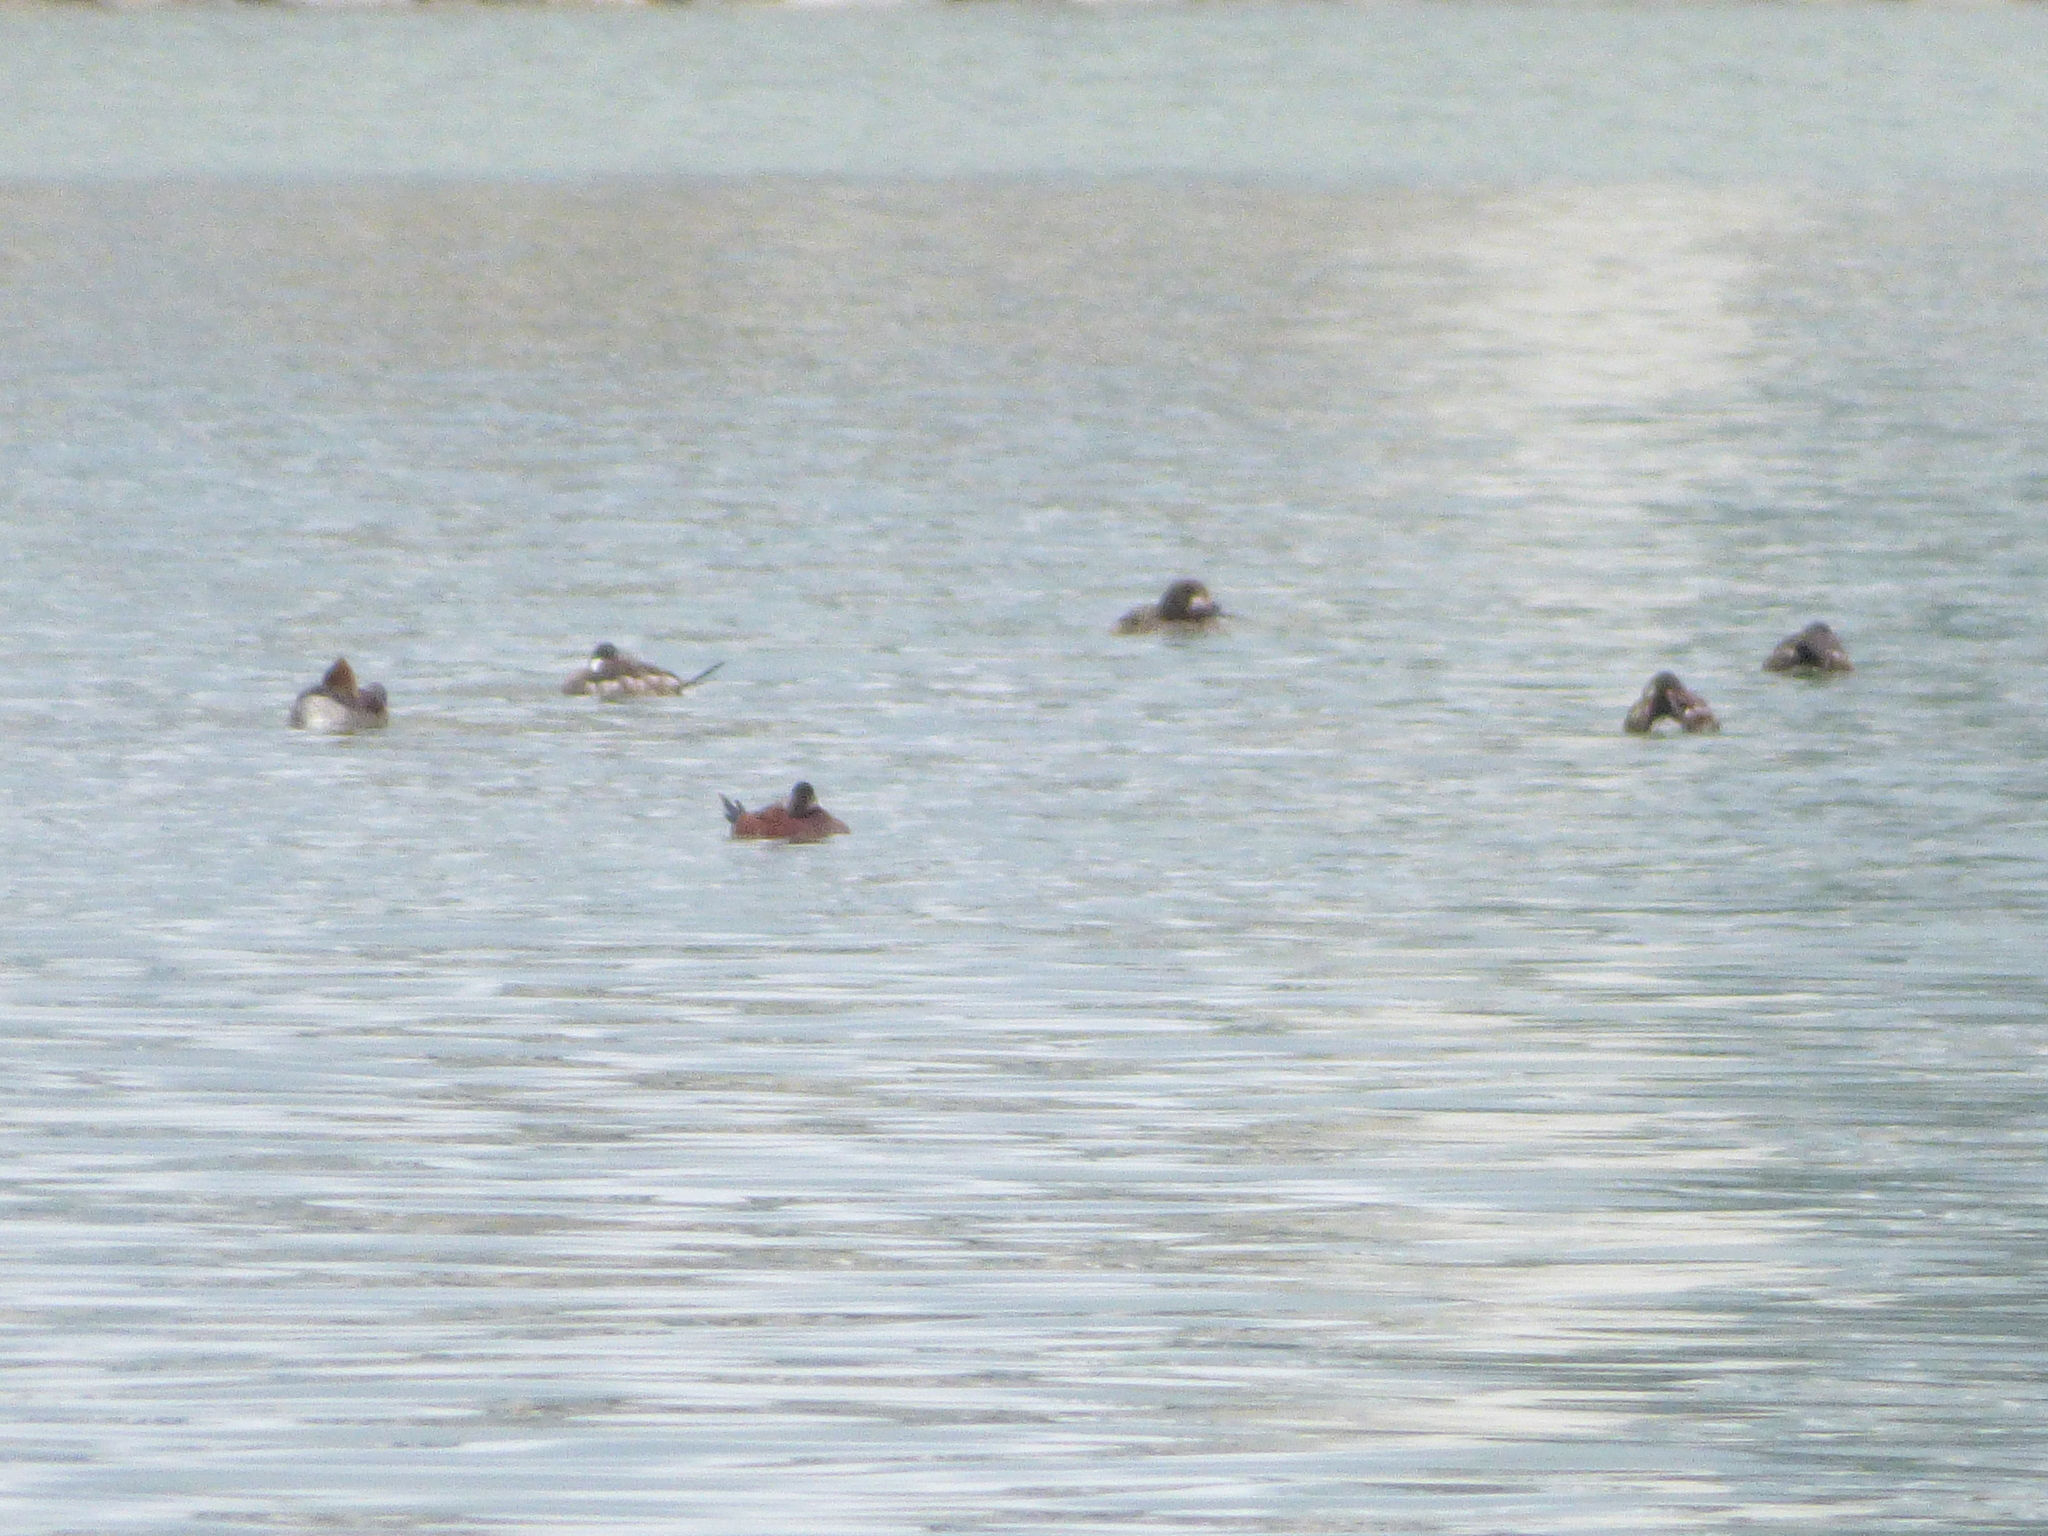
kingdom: Animalia
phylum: Chordata
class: Aves
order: Anseriformes
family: Anatidae
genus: Oxyura
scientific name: Oxyura jamaicensis
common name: Ruddy duck
